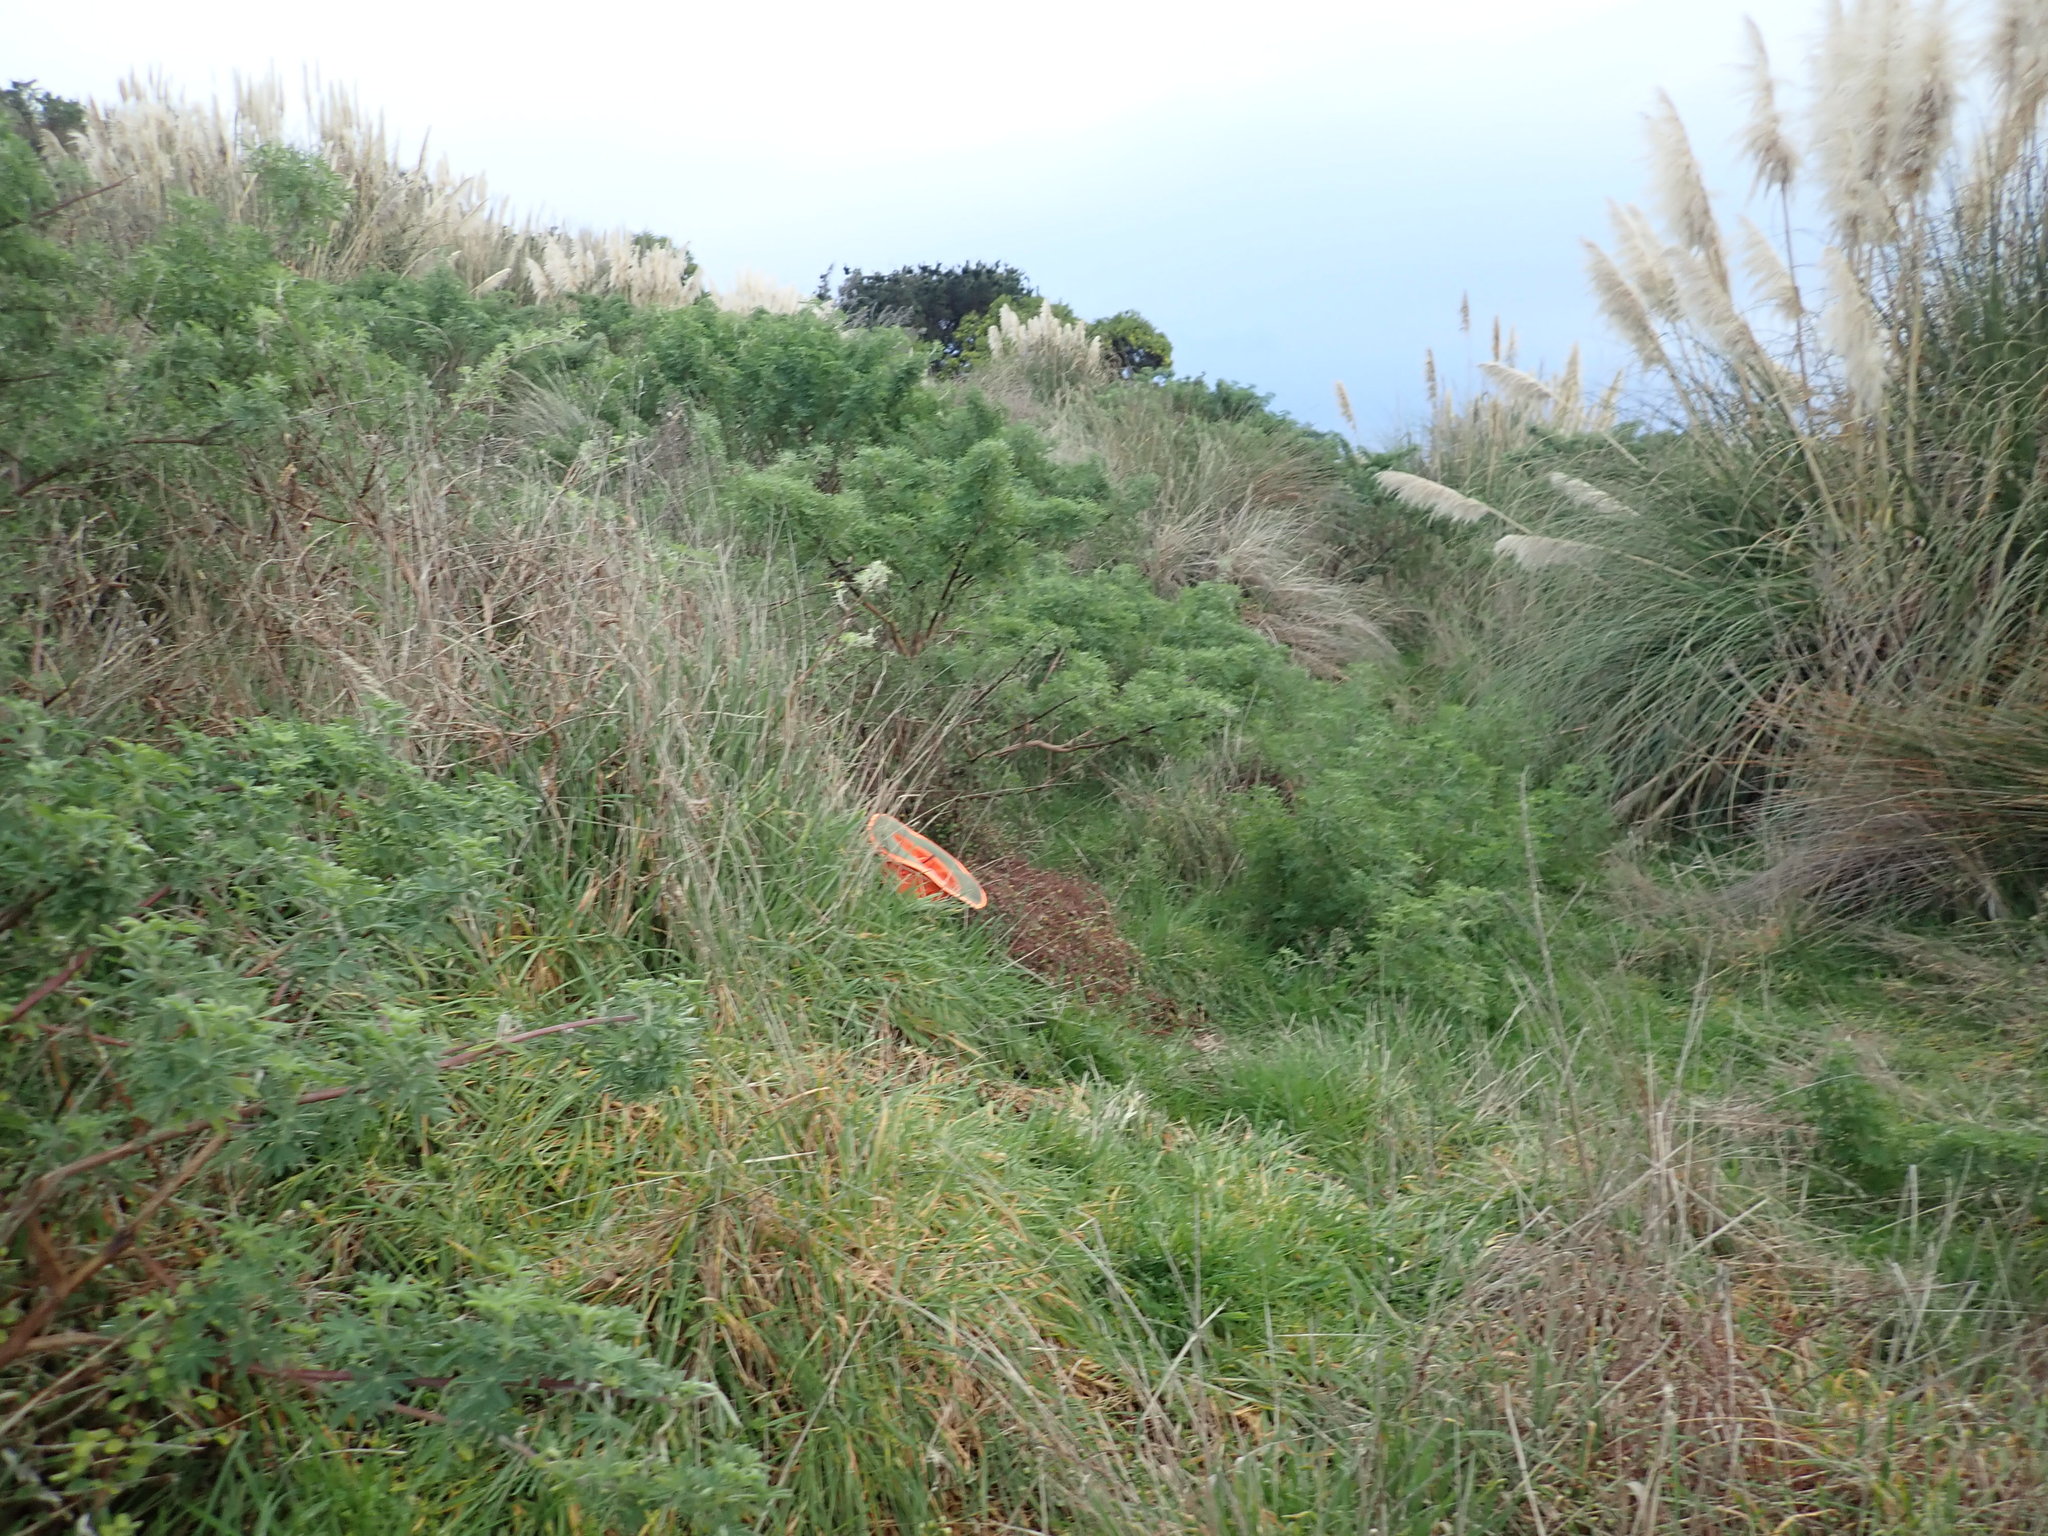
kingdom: Plantae
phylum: Tracheophyta
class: Magnoliopsida
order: Caryophyllales
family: Polygonaceae
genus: Muehlenbeckia
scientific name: Muehlenbeckia complexa
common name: Wireplant
